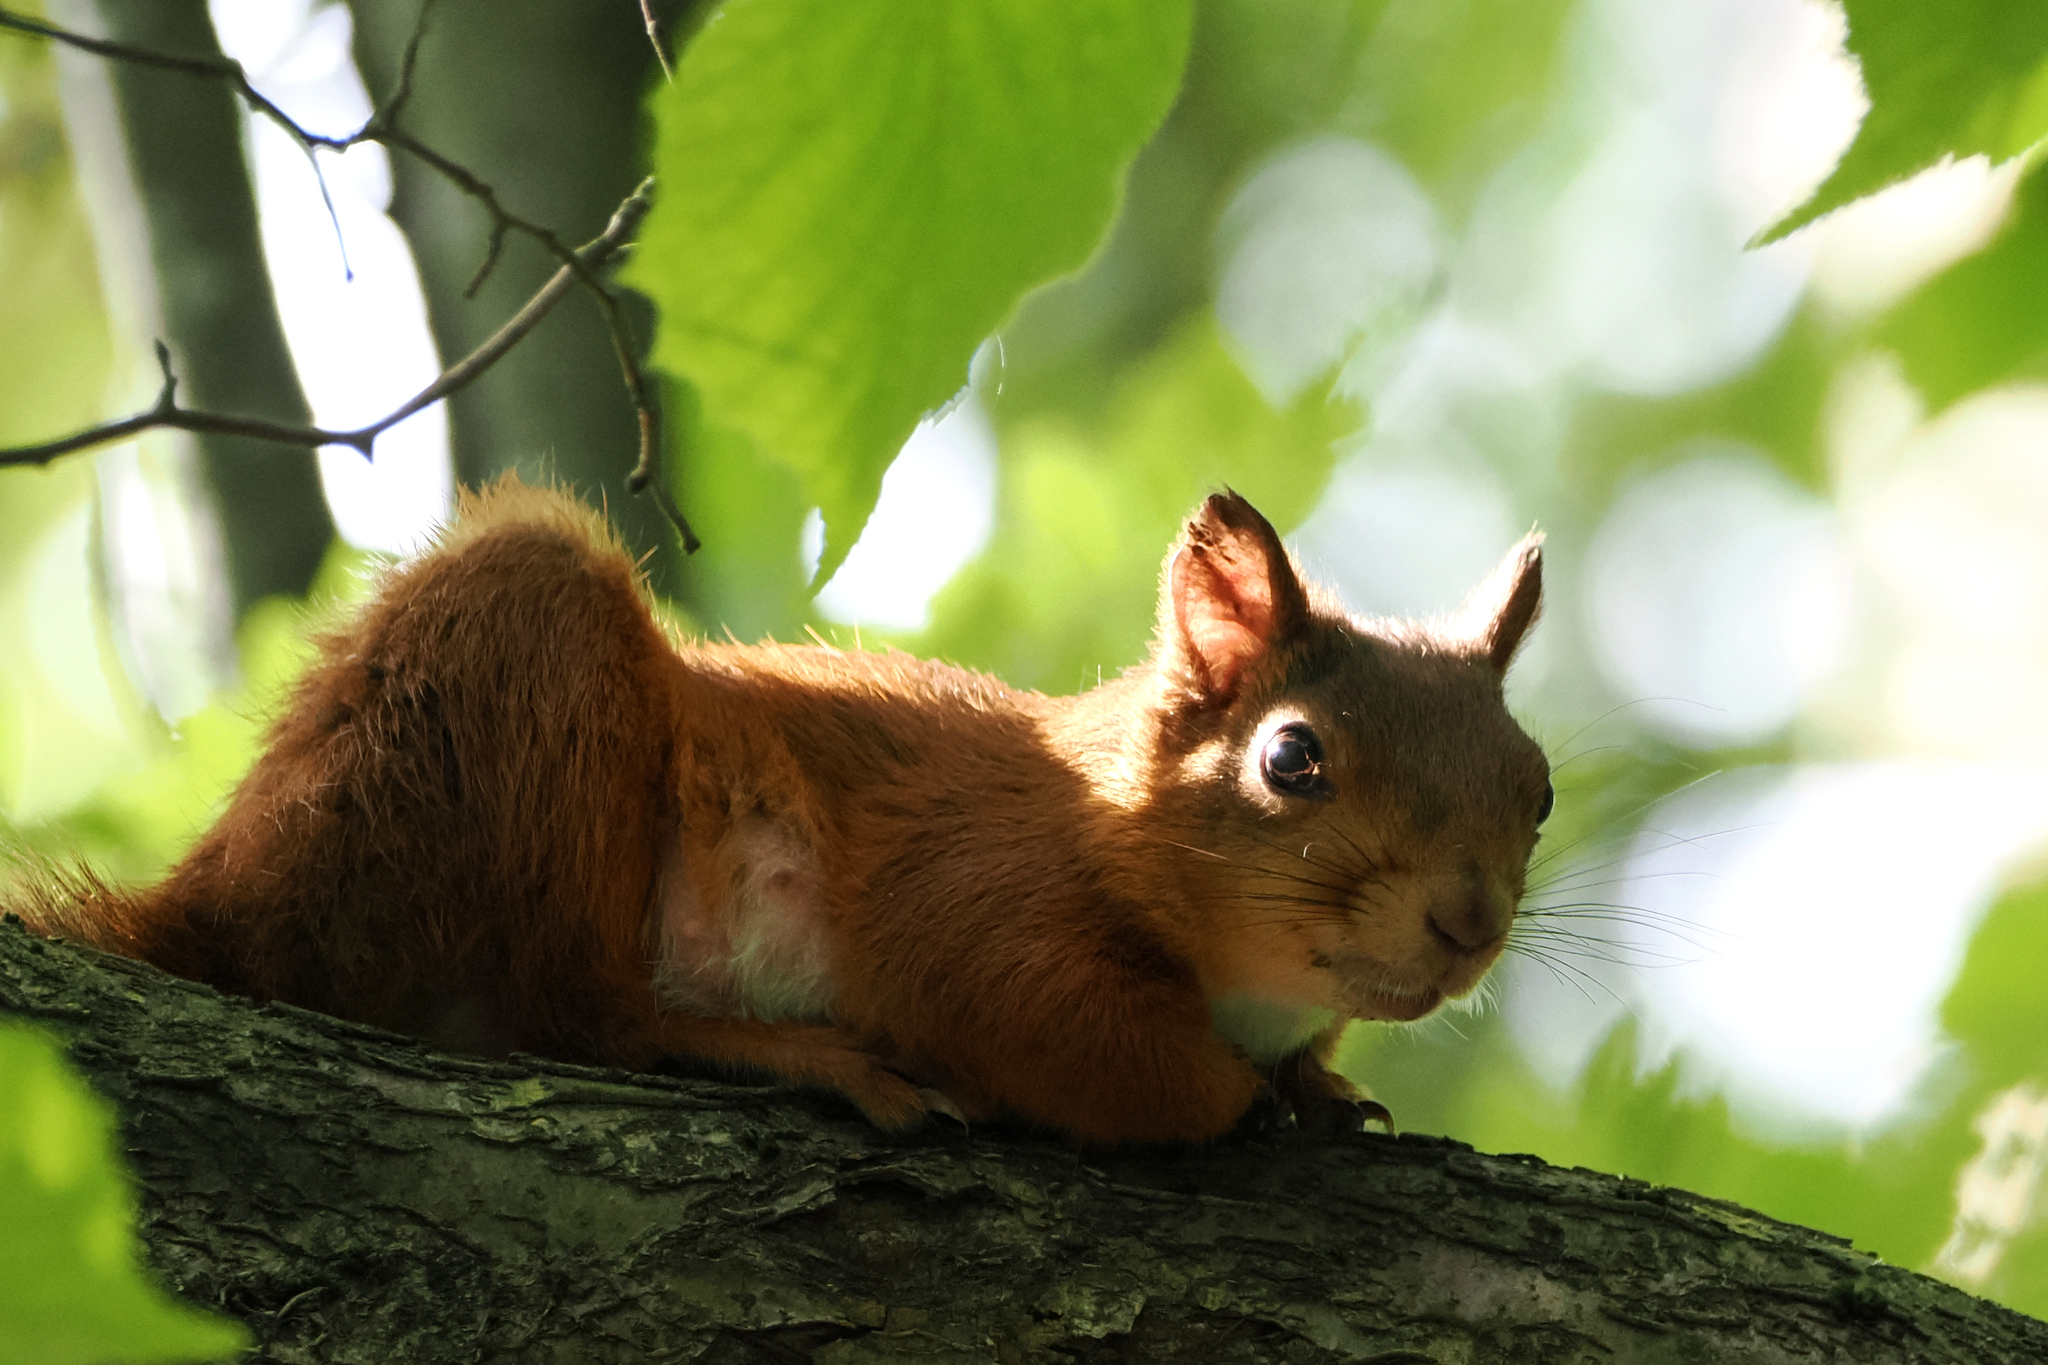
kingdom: Animalia
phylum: Chordata
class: Mammalia
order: Rodentia
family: Sciuridae
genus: Sciurus
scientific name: Sciurus vulgaris
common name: Eurasian red squirrel
